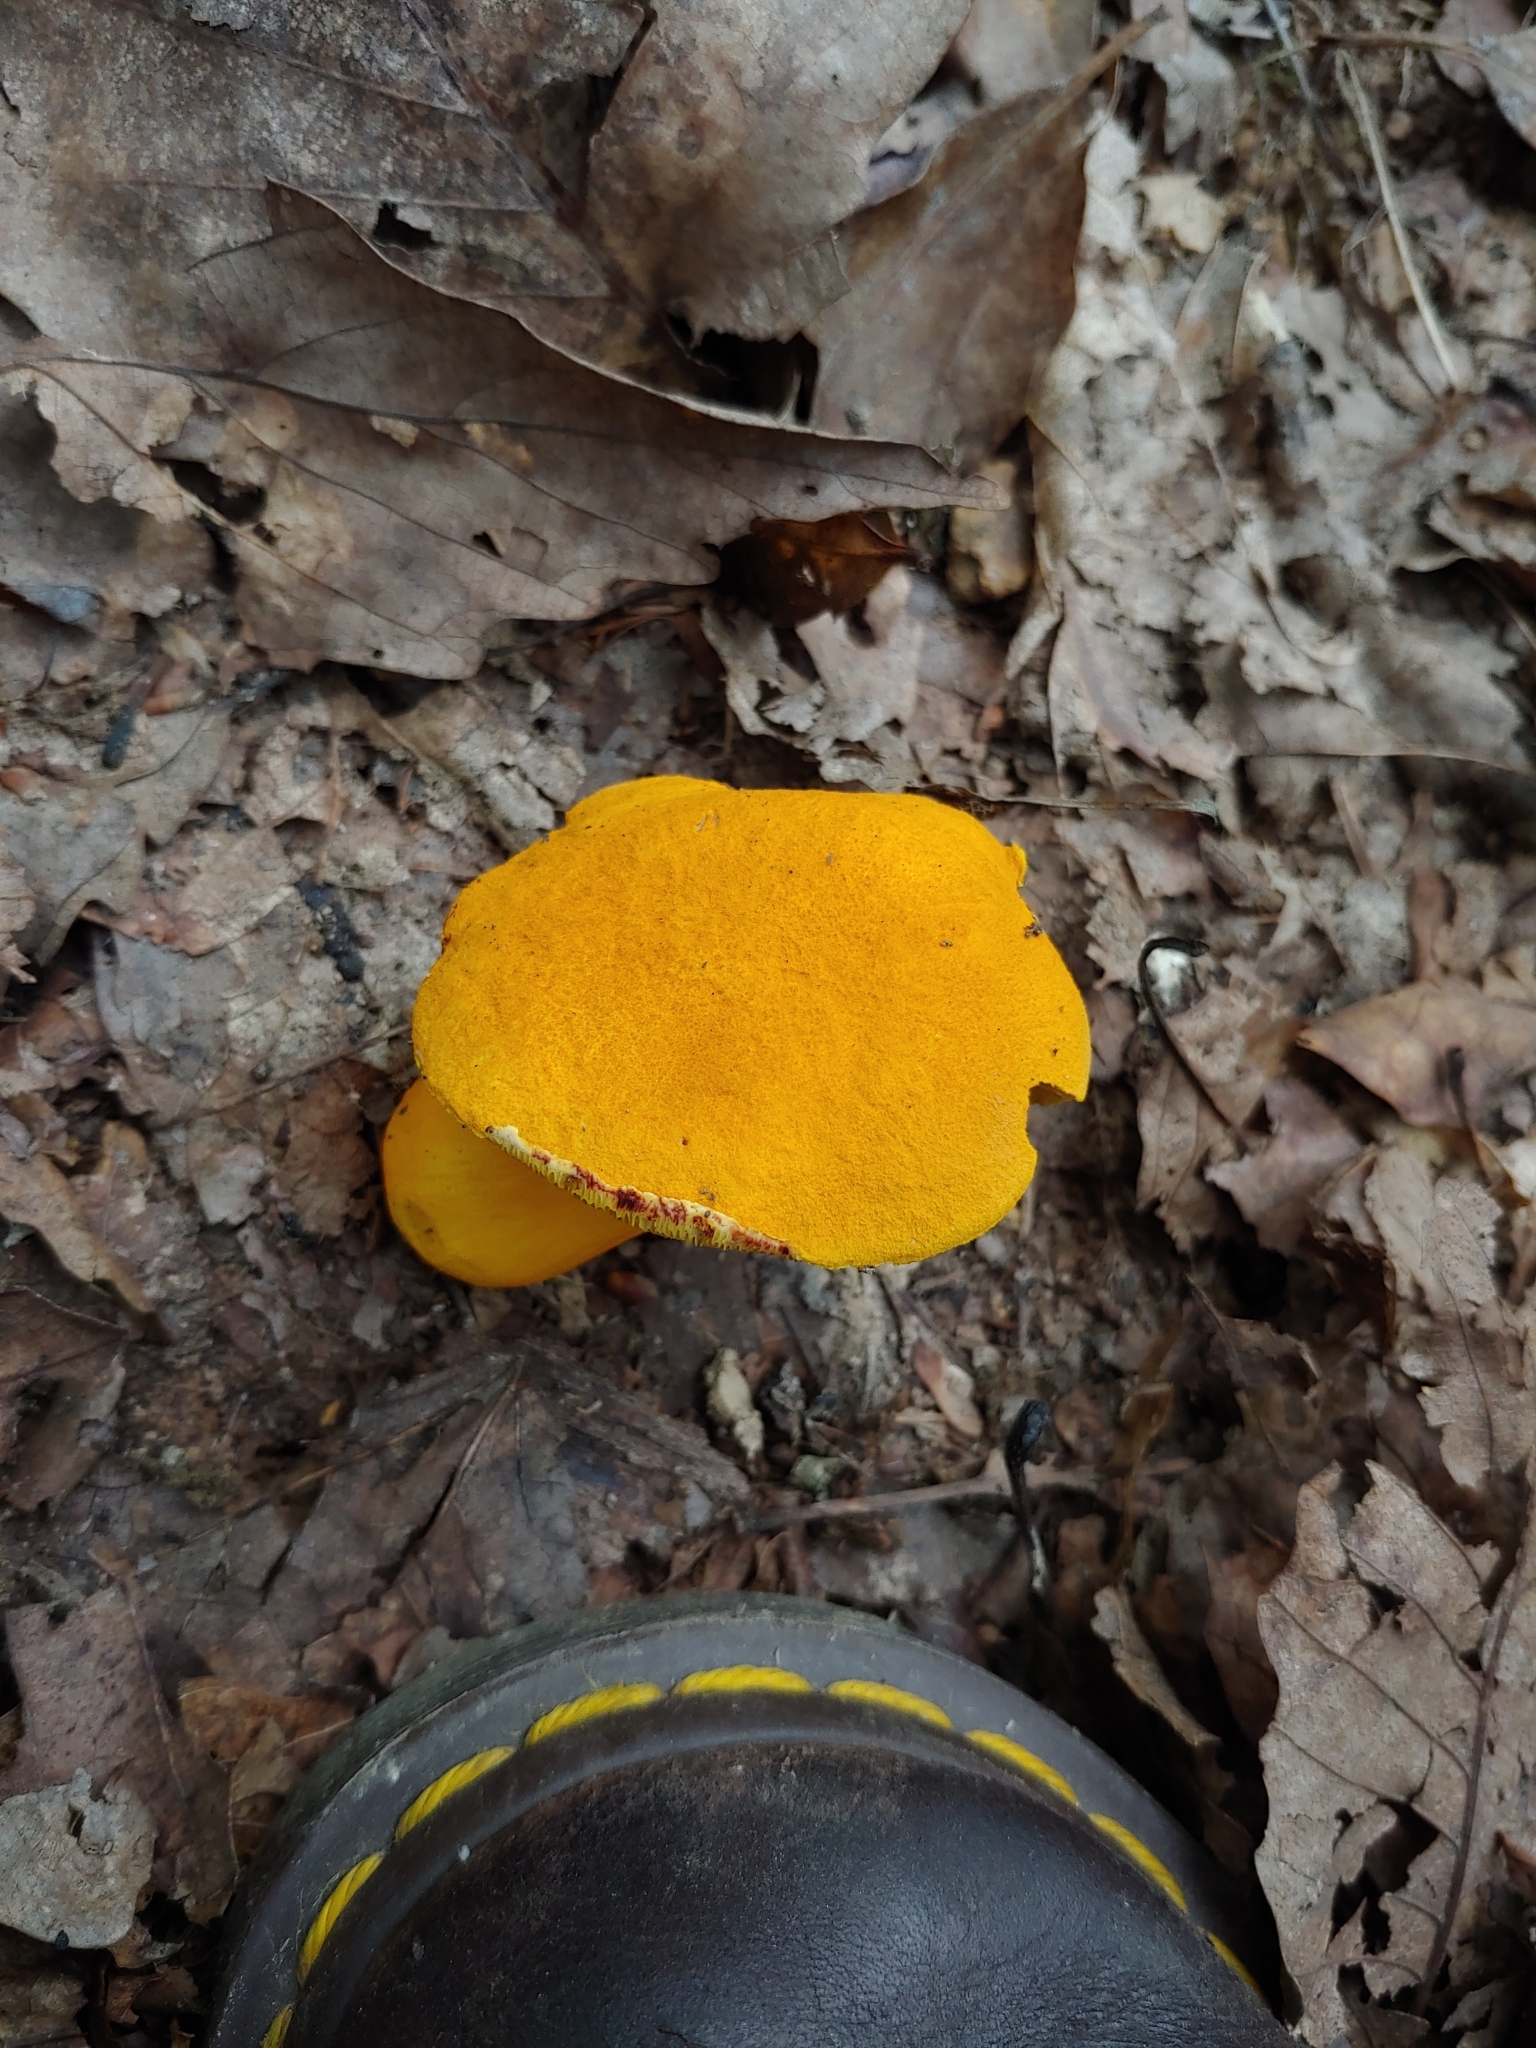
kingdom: Fungi
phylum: Basidiomycota
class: Agaricomycetes
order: Boletales
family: Boletaceae
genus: Boletus
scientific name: Boletus aurantiosplendens
